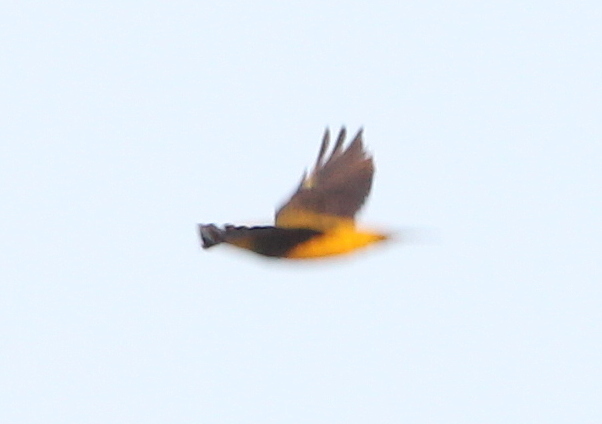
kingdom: Animalia
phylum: Chordata
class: Aves
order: Passeriformes
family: Oriolidae
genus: Oriolus
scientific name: Oriolus oriolus
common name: Eurasian golden oriole
